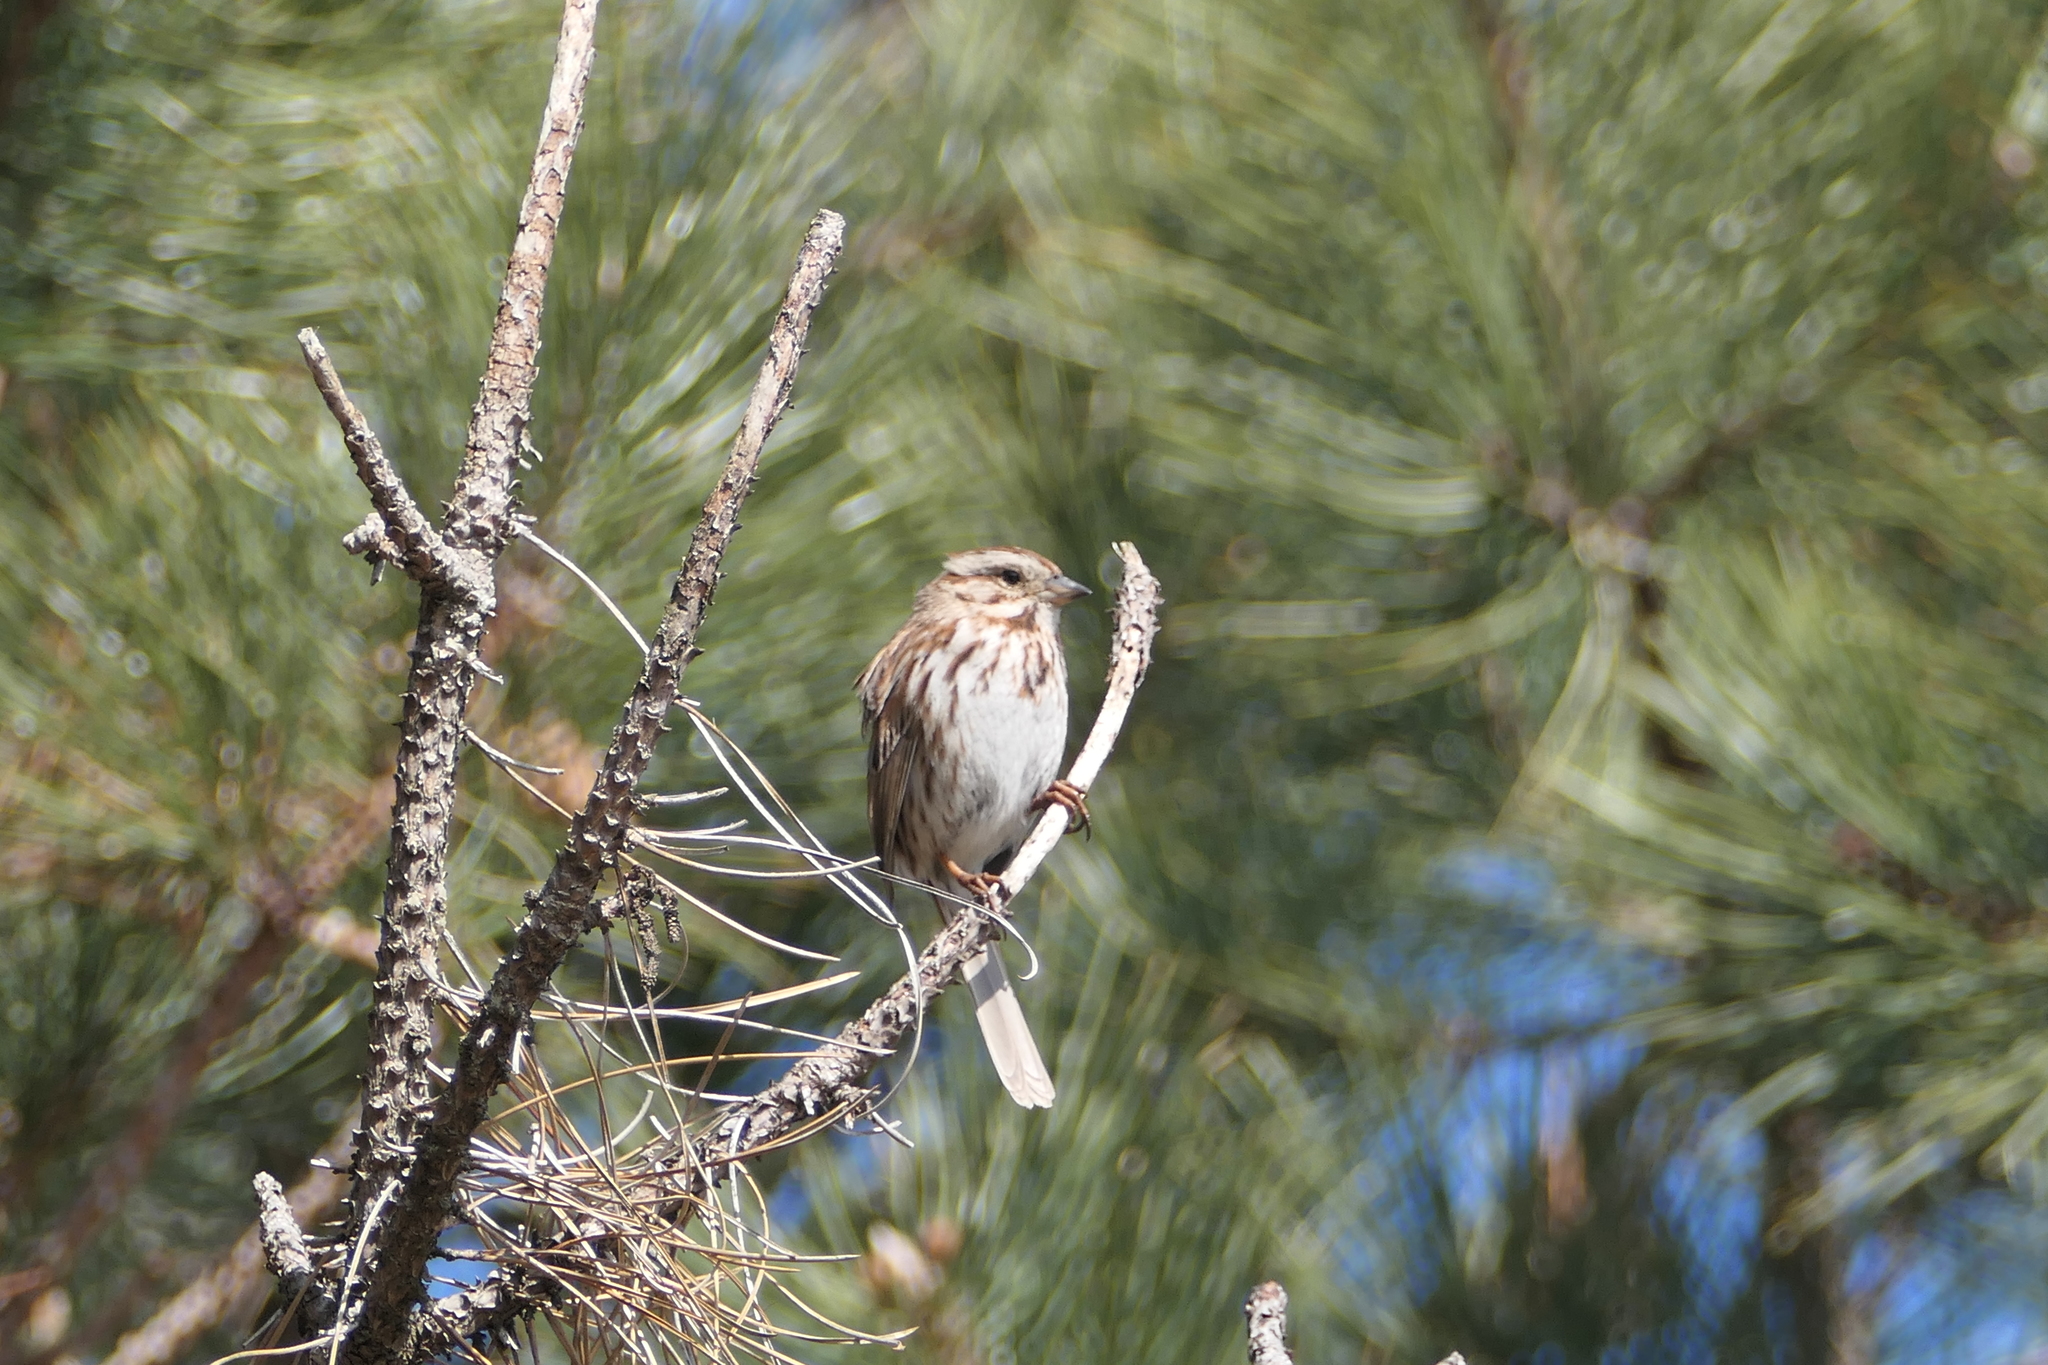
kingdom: Animalia
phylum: Chordata
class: Aves
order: Passeriformes
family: Passerellidae
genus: Melospiza
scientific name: Melospiza melodia
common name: Song sparrow
